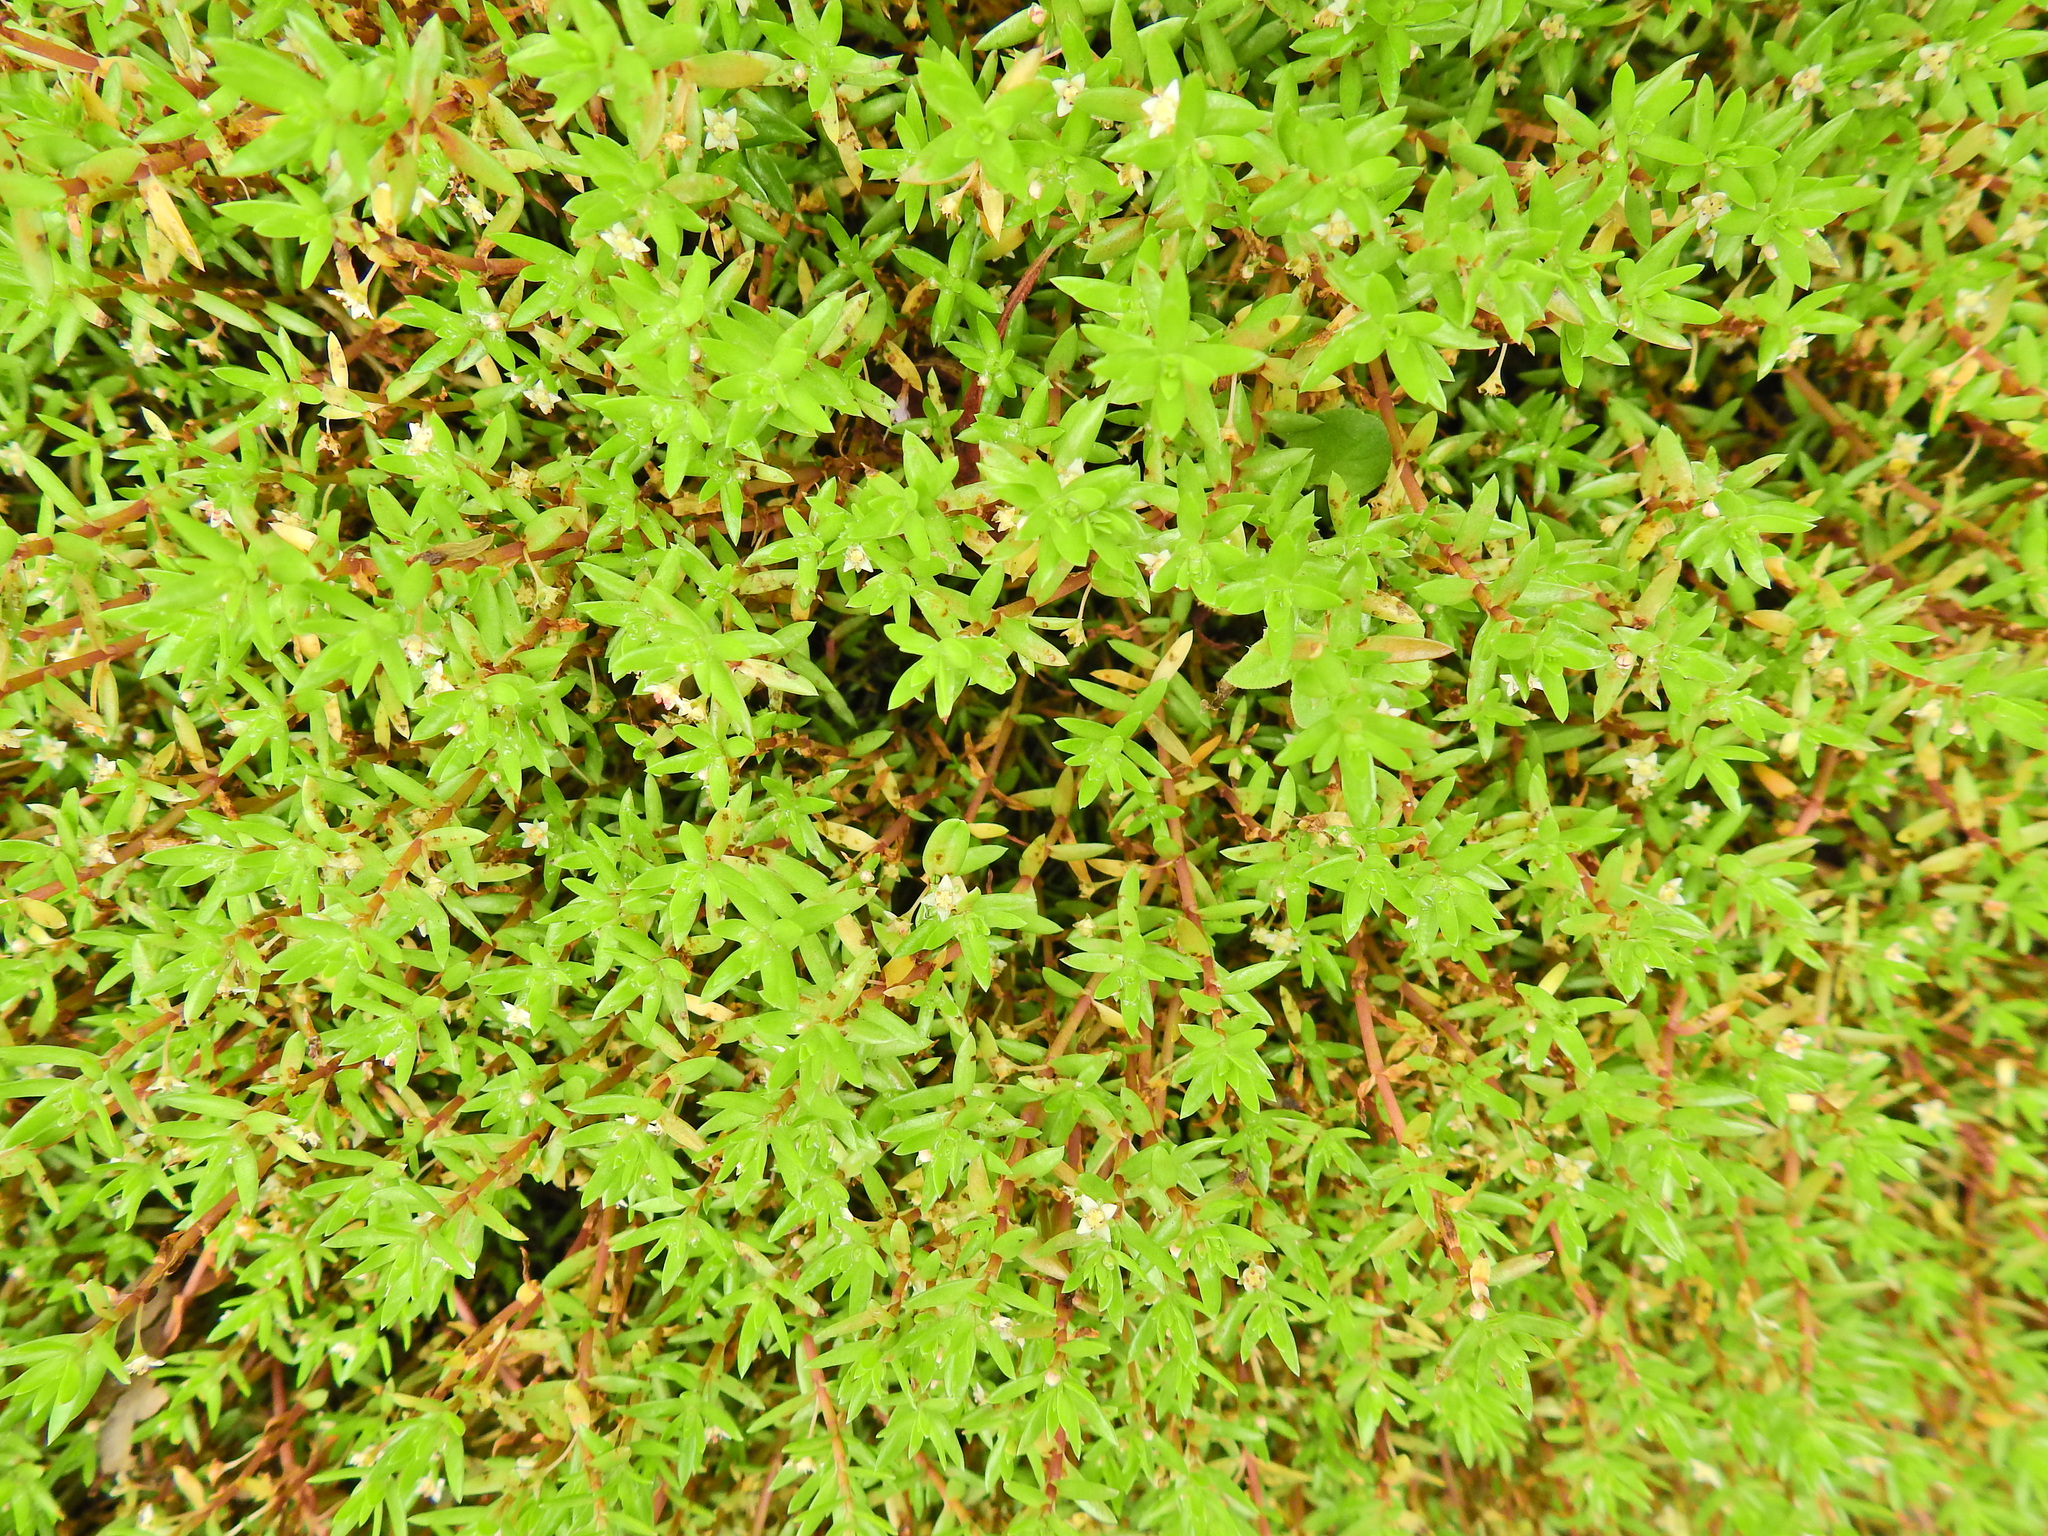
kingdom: Plantae
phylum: Tracheophyta
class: Magnoliopsida
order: Saxifragales
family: Crassulaceae
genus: Crassula
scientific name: Crassula helmsii
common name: New zealand pigmyweed
